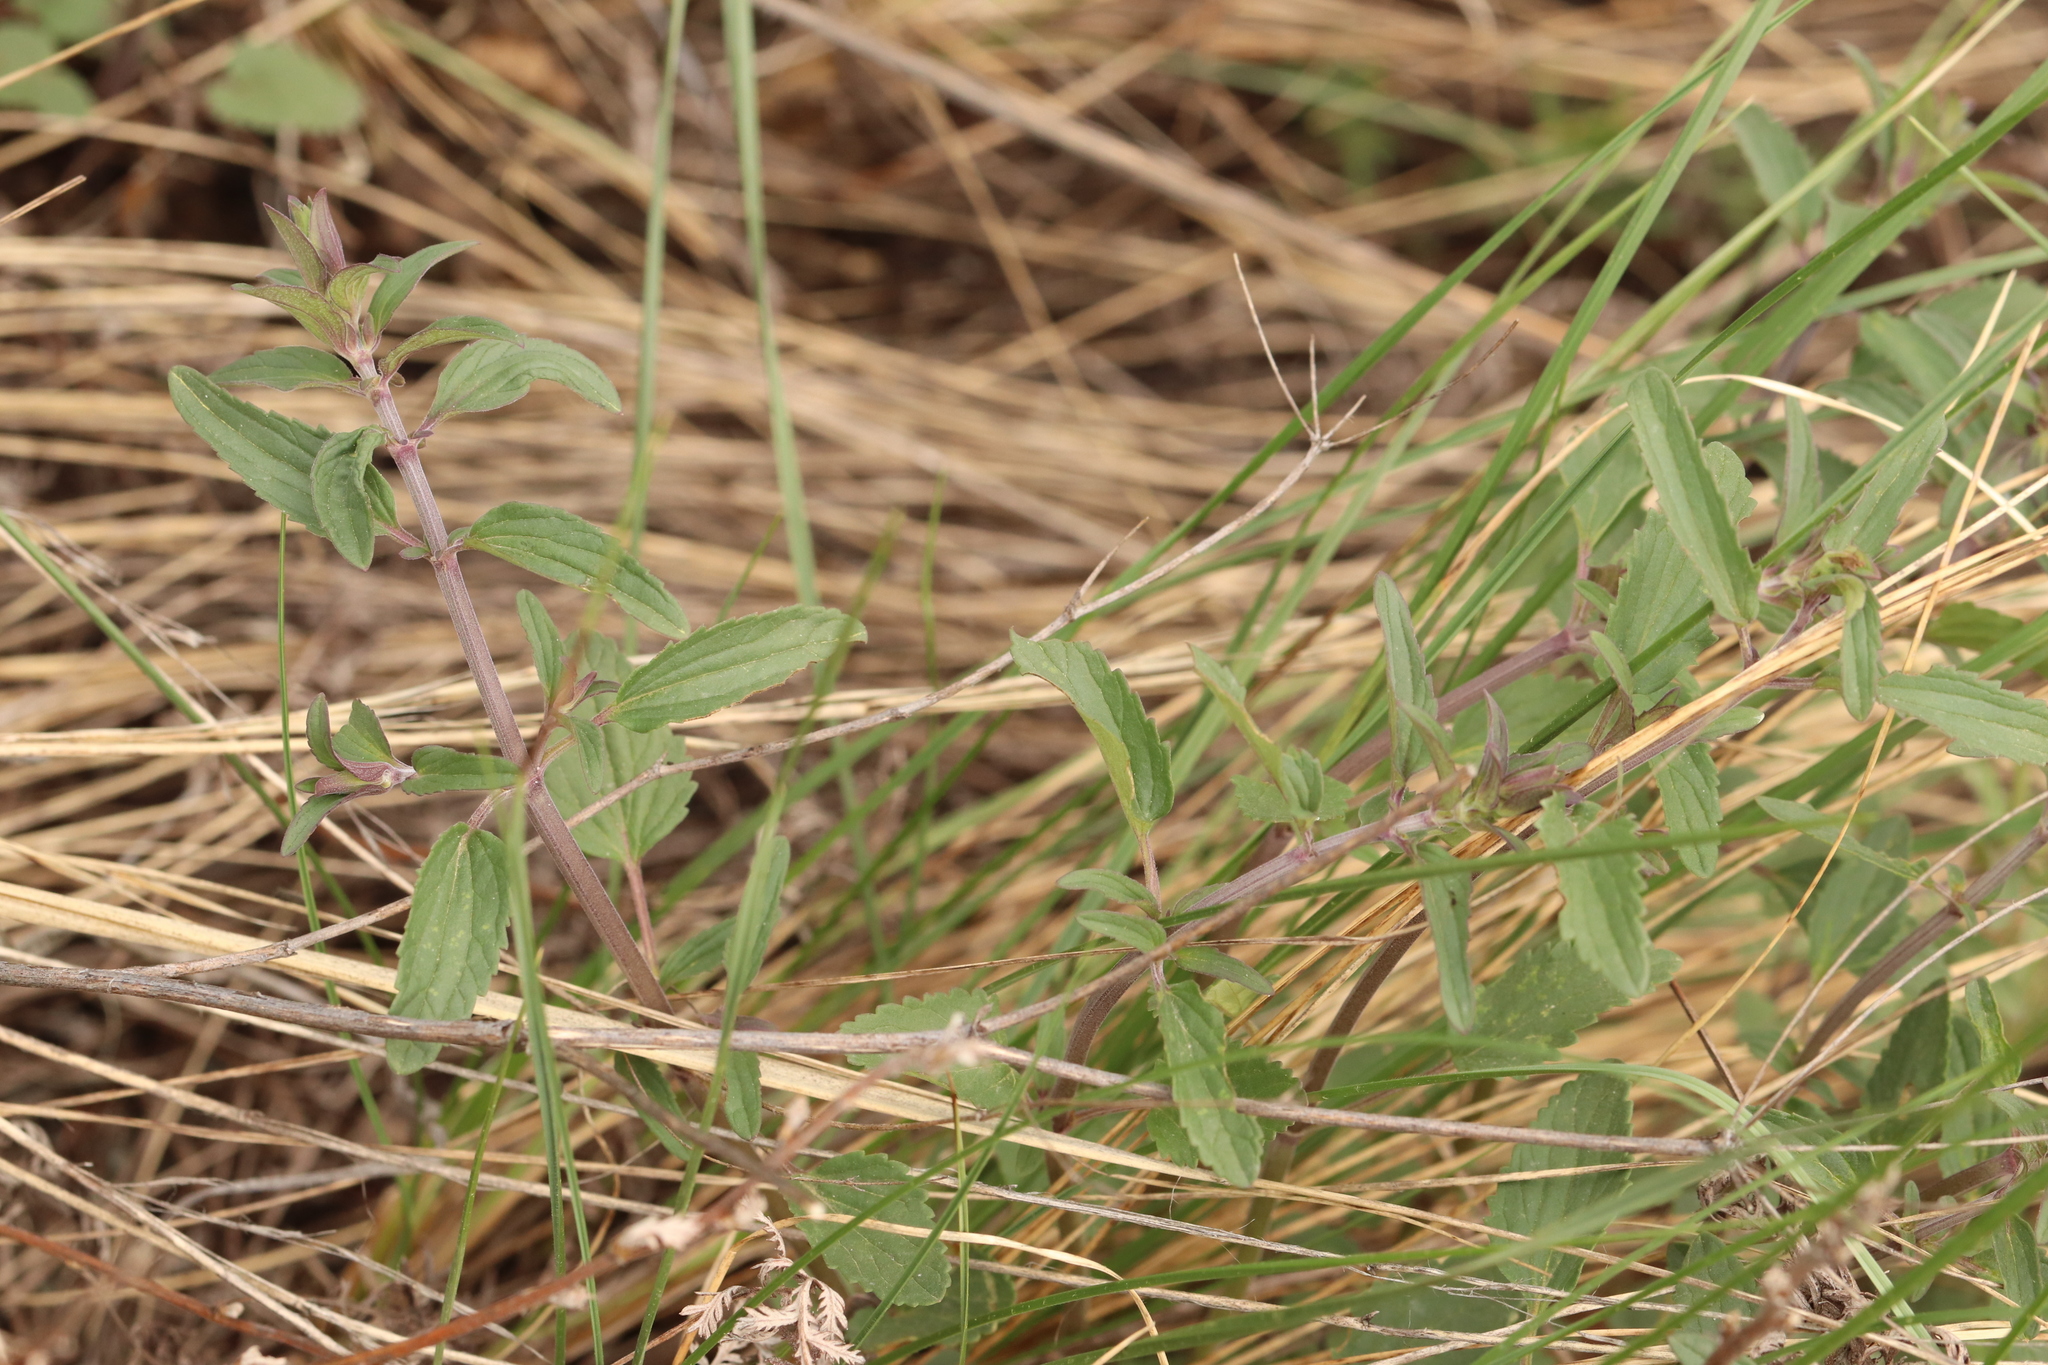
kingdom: Plantae
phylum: Tracheophyta
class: Magnoliopsida
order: Lamiales
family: Lamiaceae
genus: Dracocephalum
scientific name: Dracocephalum thymiflorum
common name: Thymeleaf dragonhead
